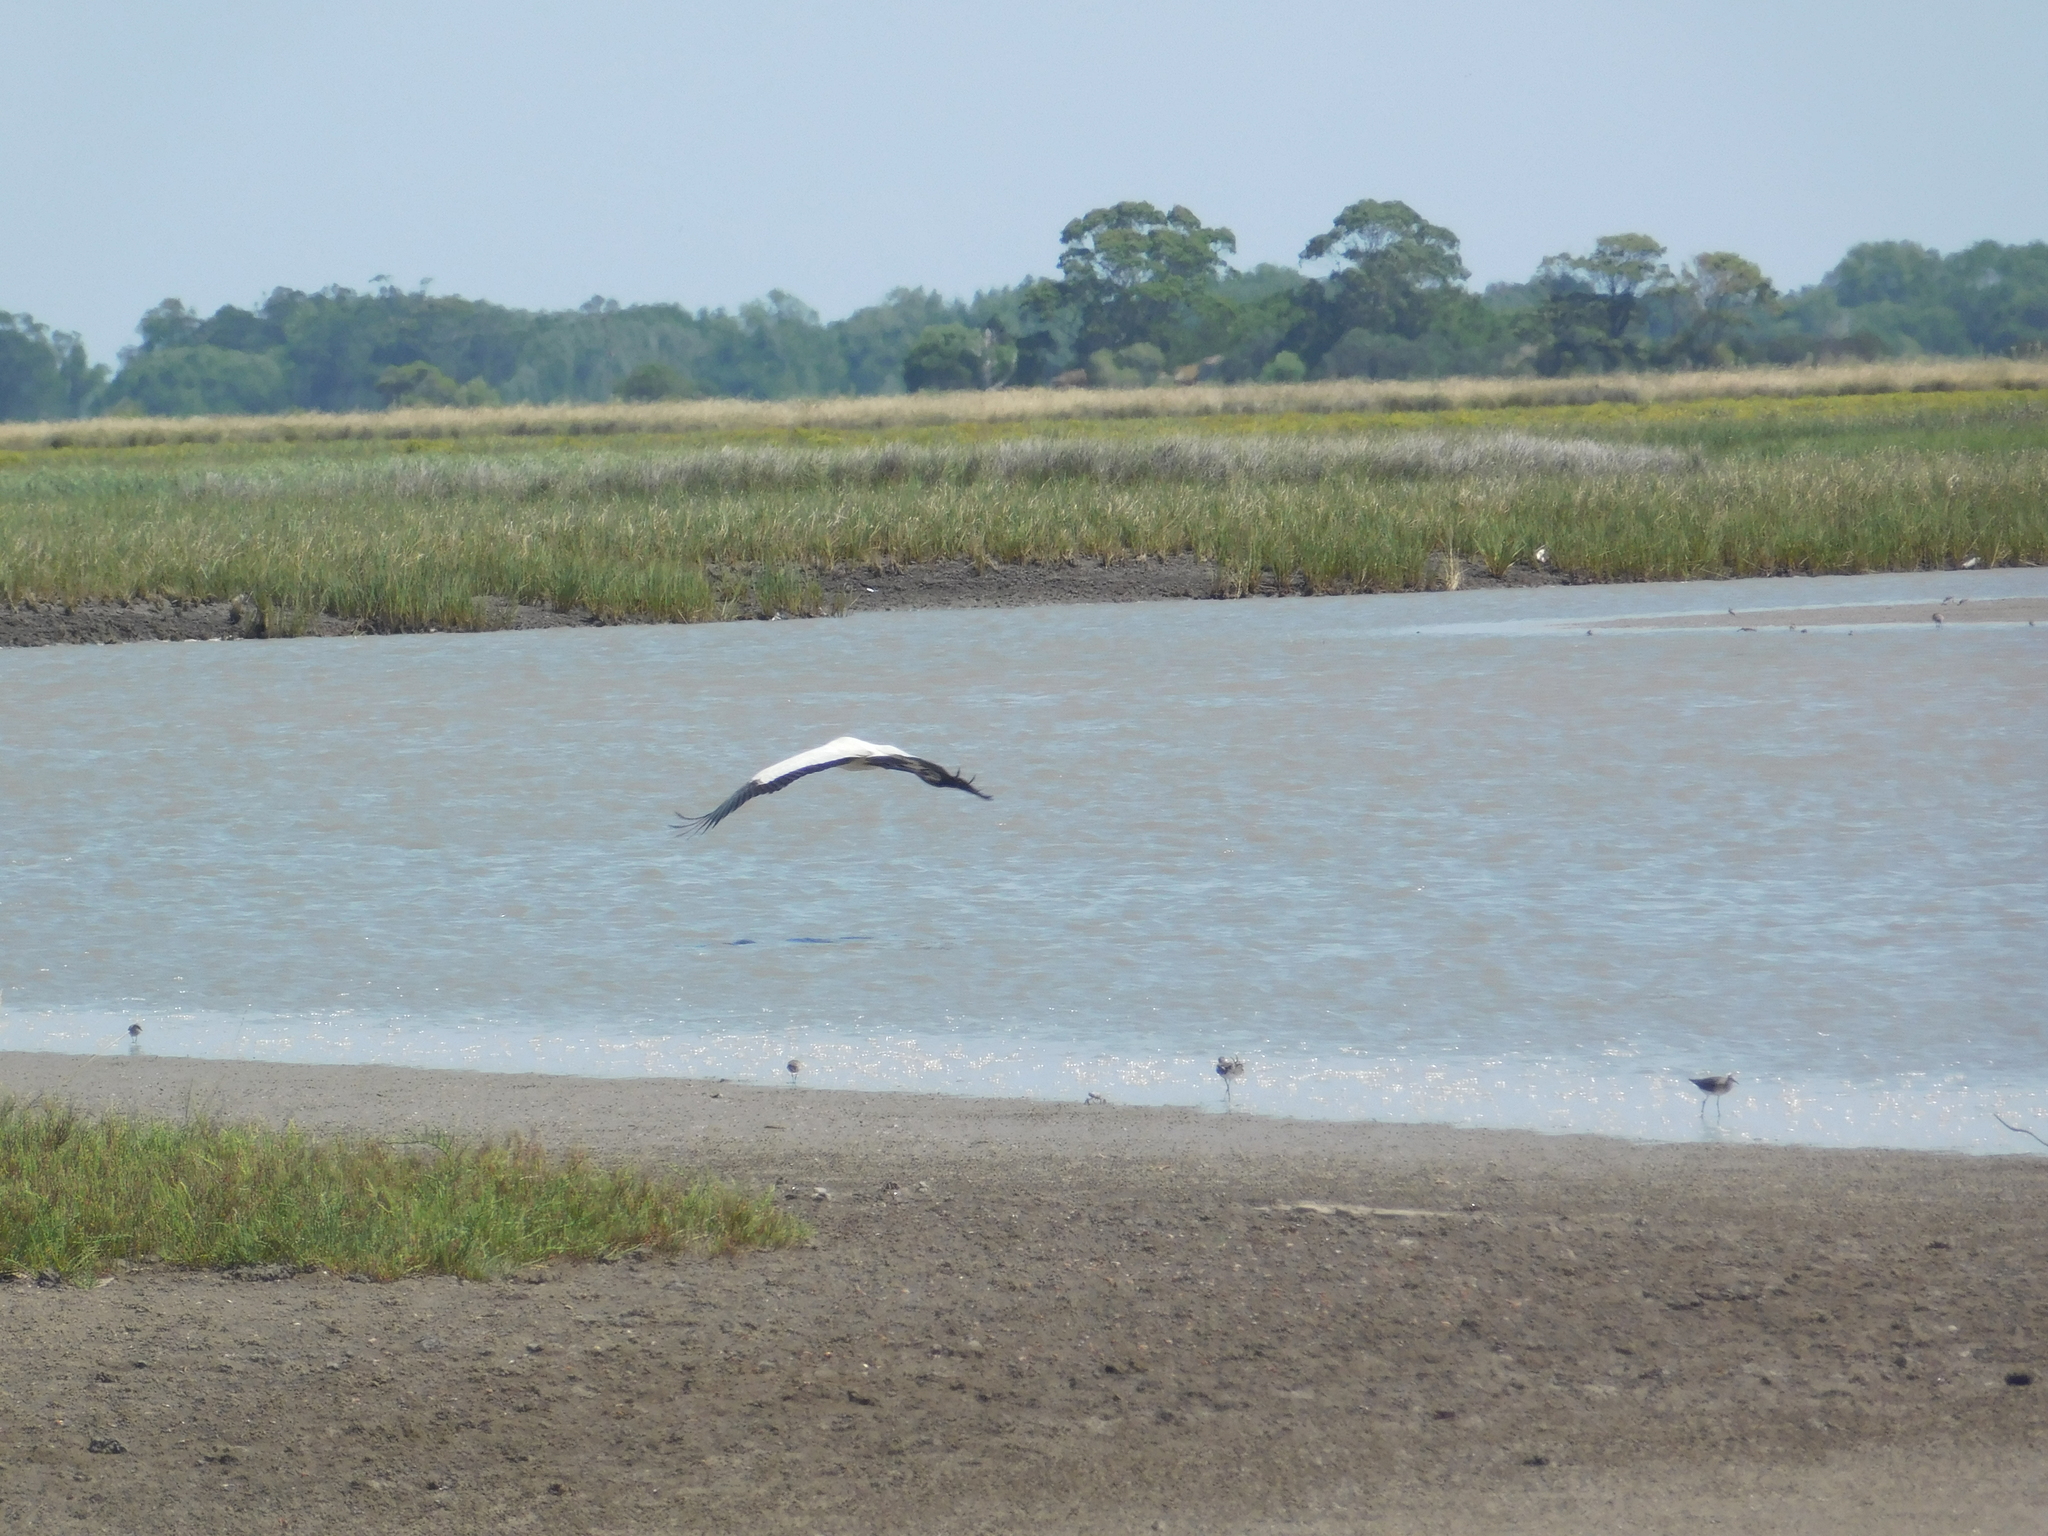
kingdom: Animalia
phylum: Chordata
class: Aves
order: Ciconiiformes
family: Ciconiidae
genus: Mycteria
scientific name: Mycteria americana
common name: Wood stork
